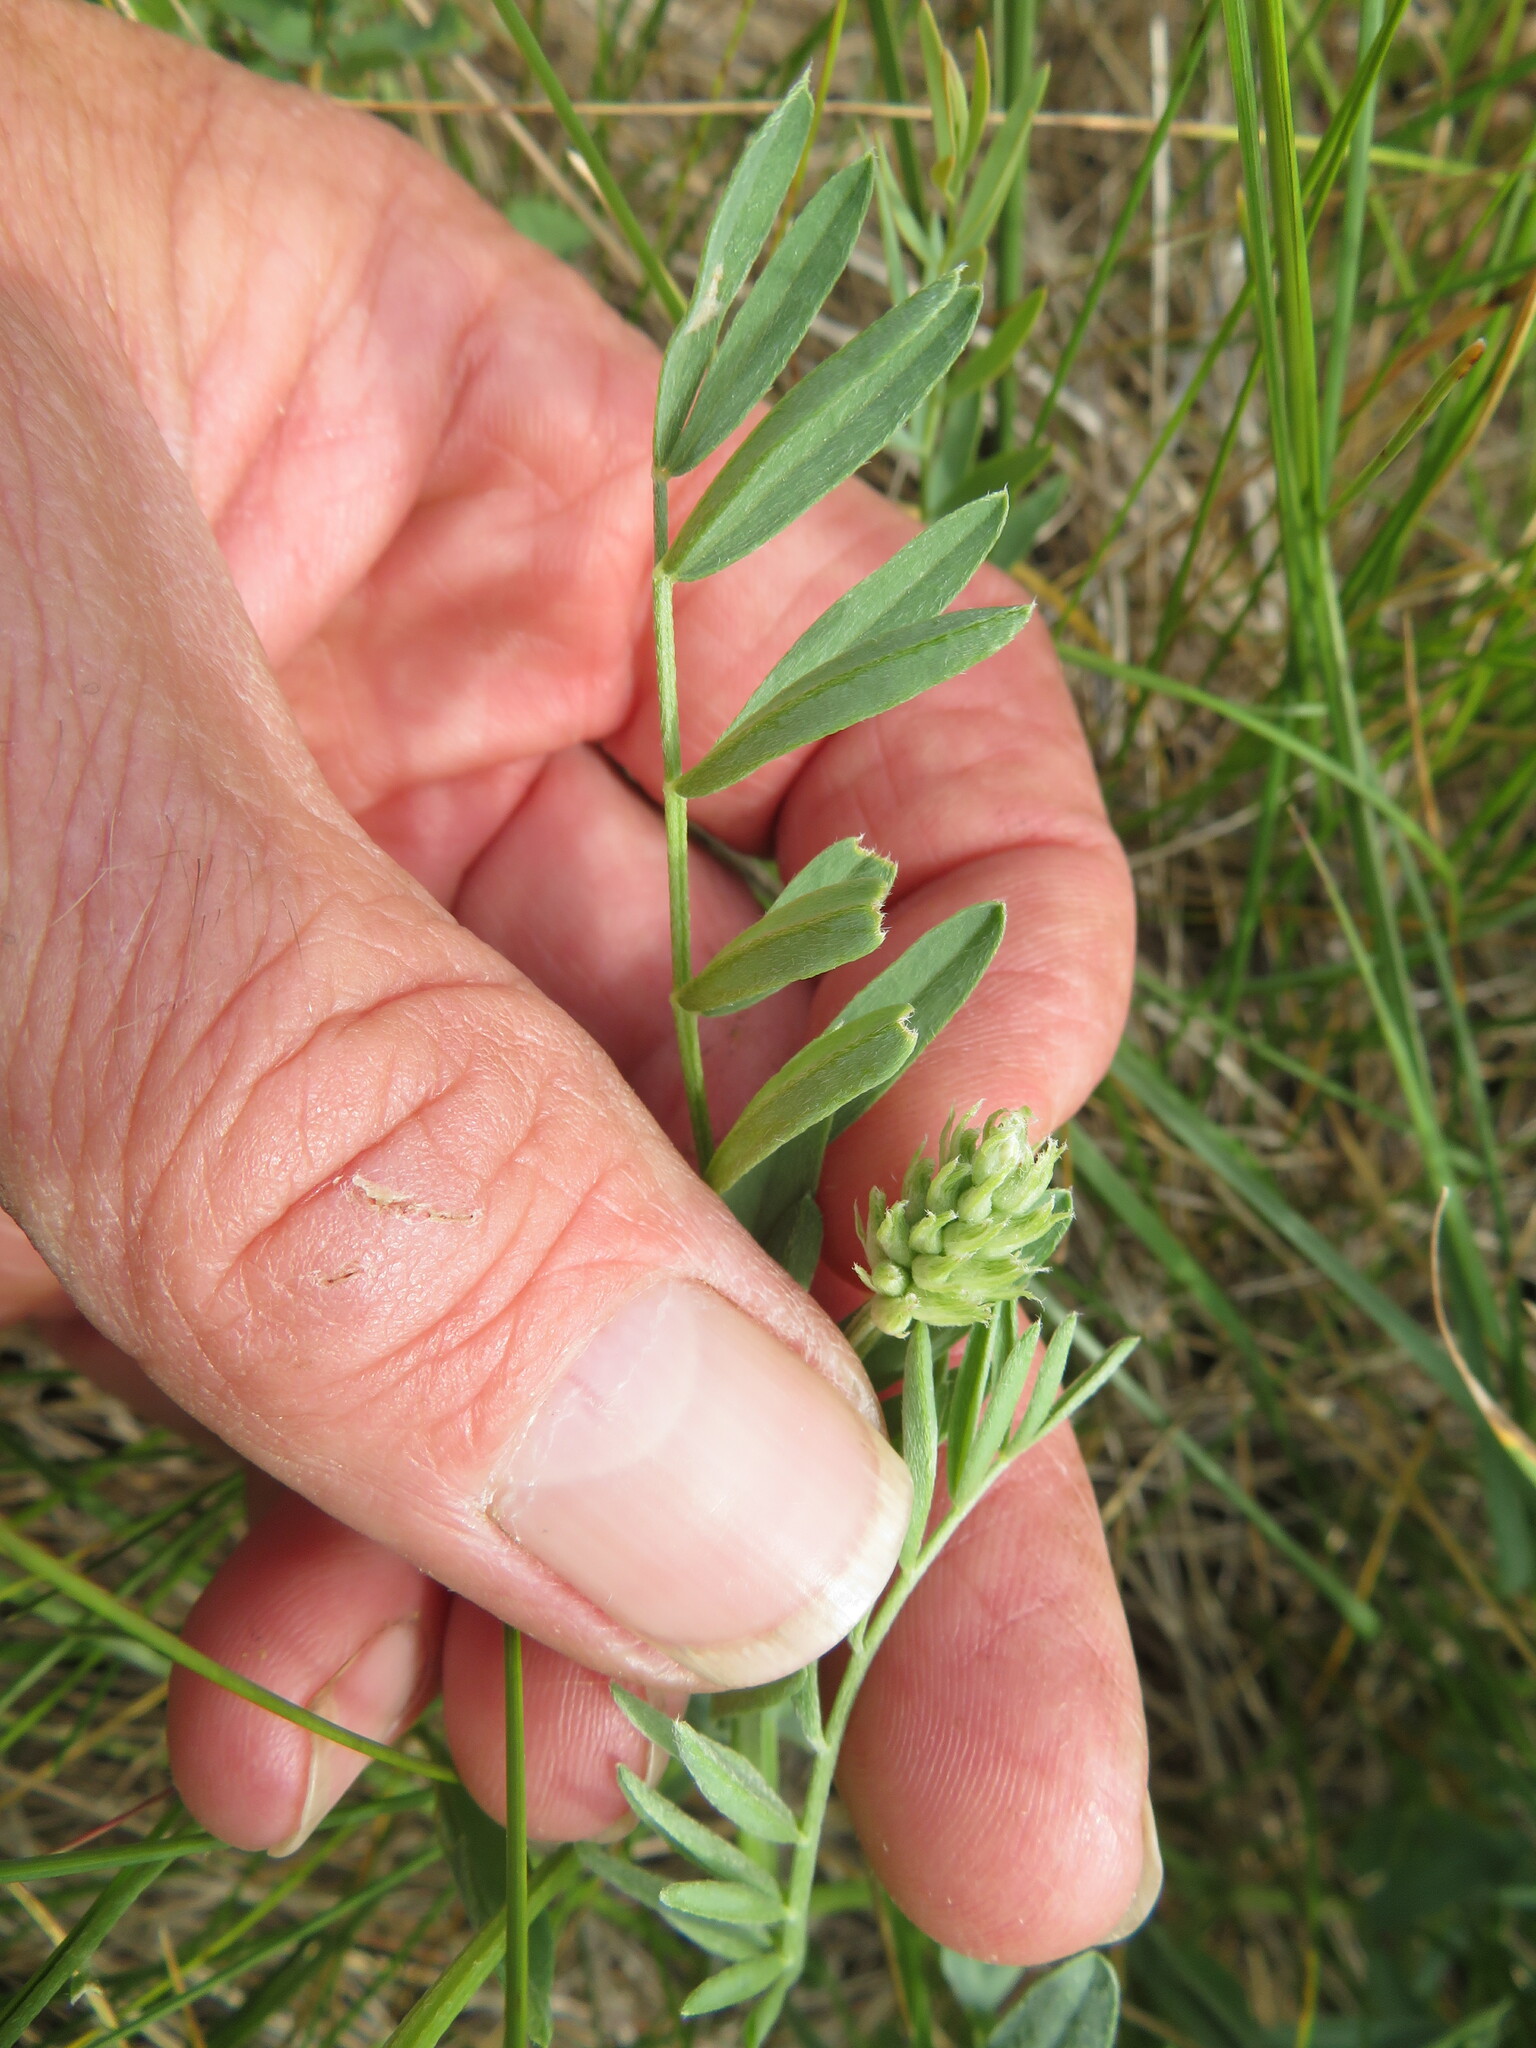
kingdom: Plantae
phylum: Tracheophyta
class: Magnoliopsida
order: Fabales
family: Fabaceae
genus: Astragalus
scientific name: Astragalus laxmannii
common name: Laxmann's milk-vetch
